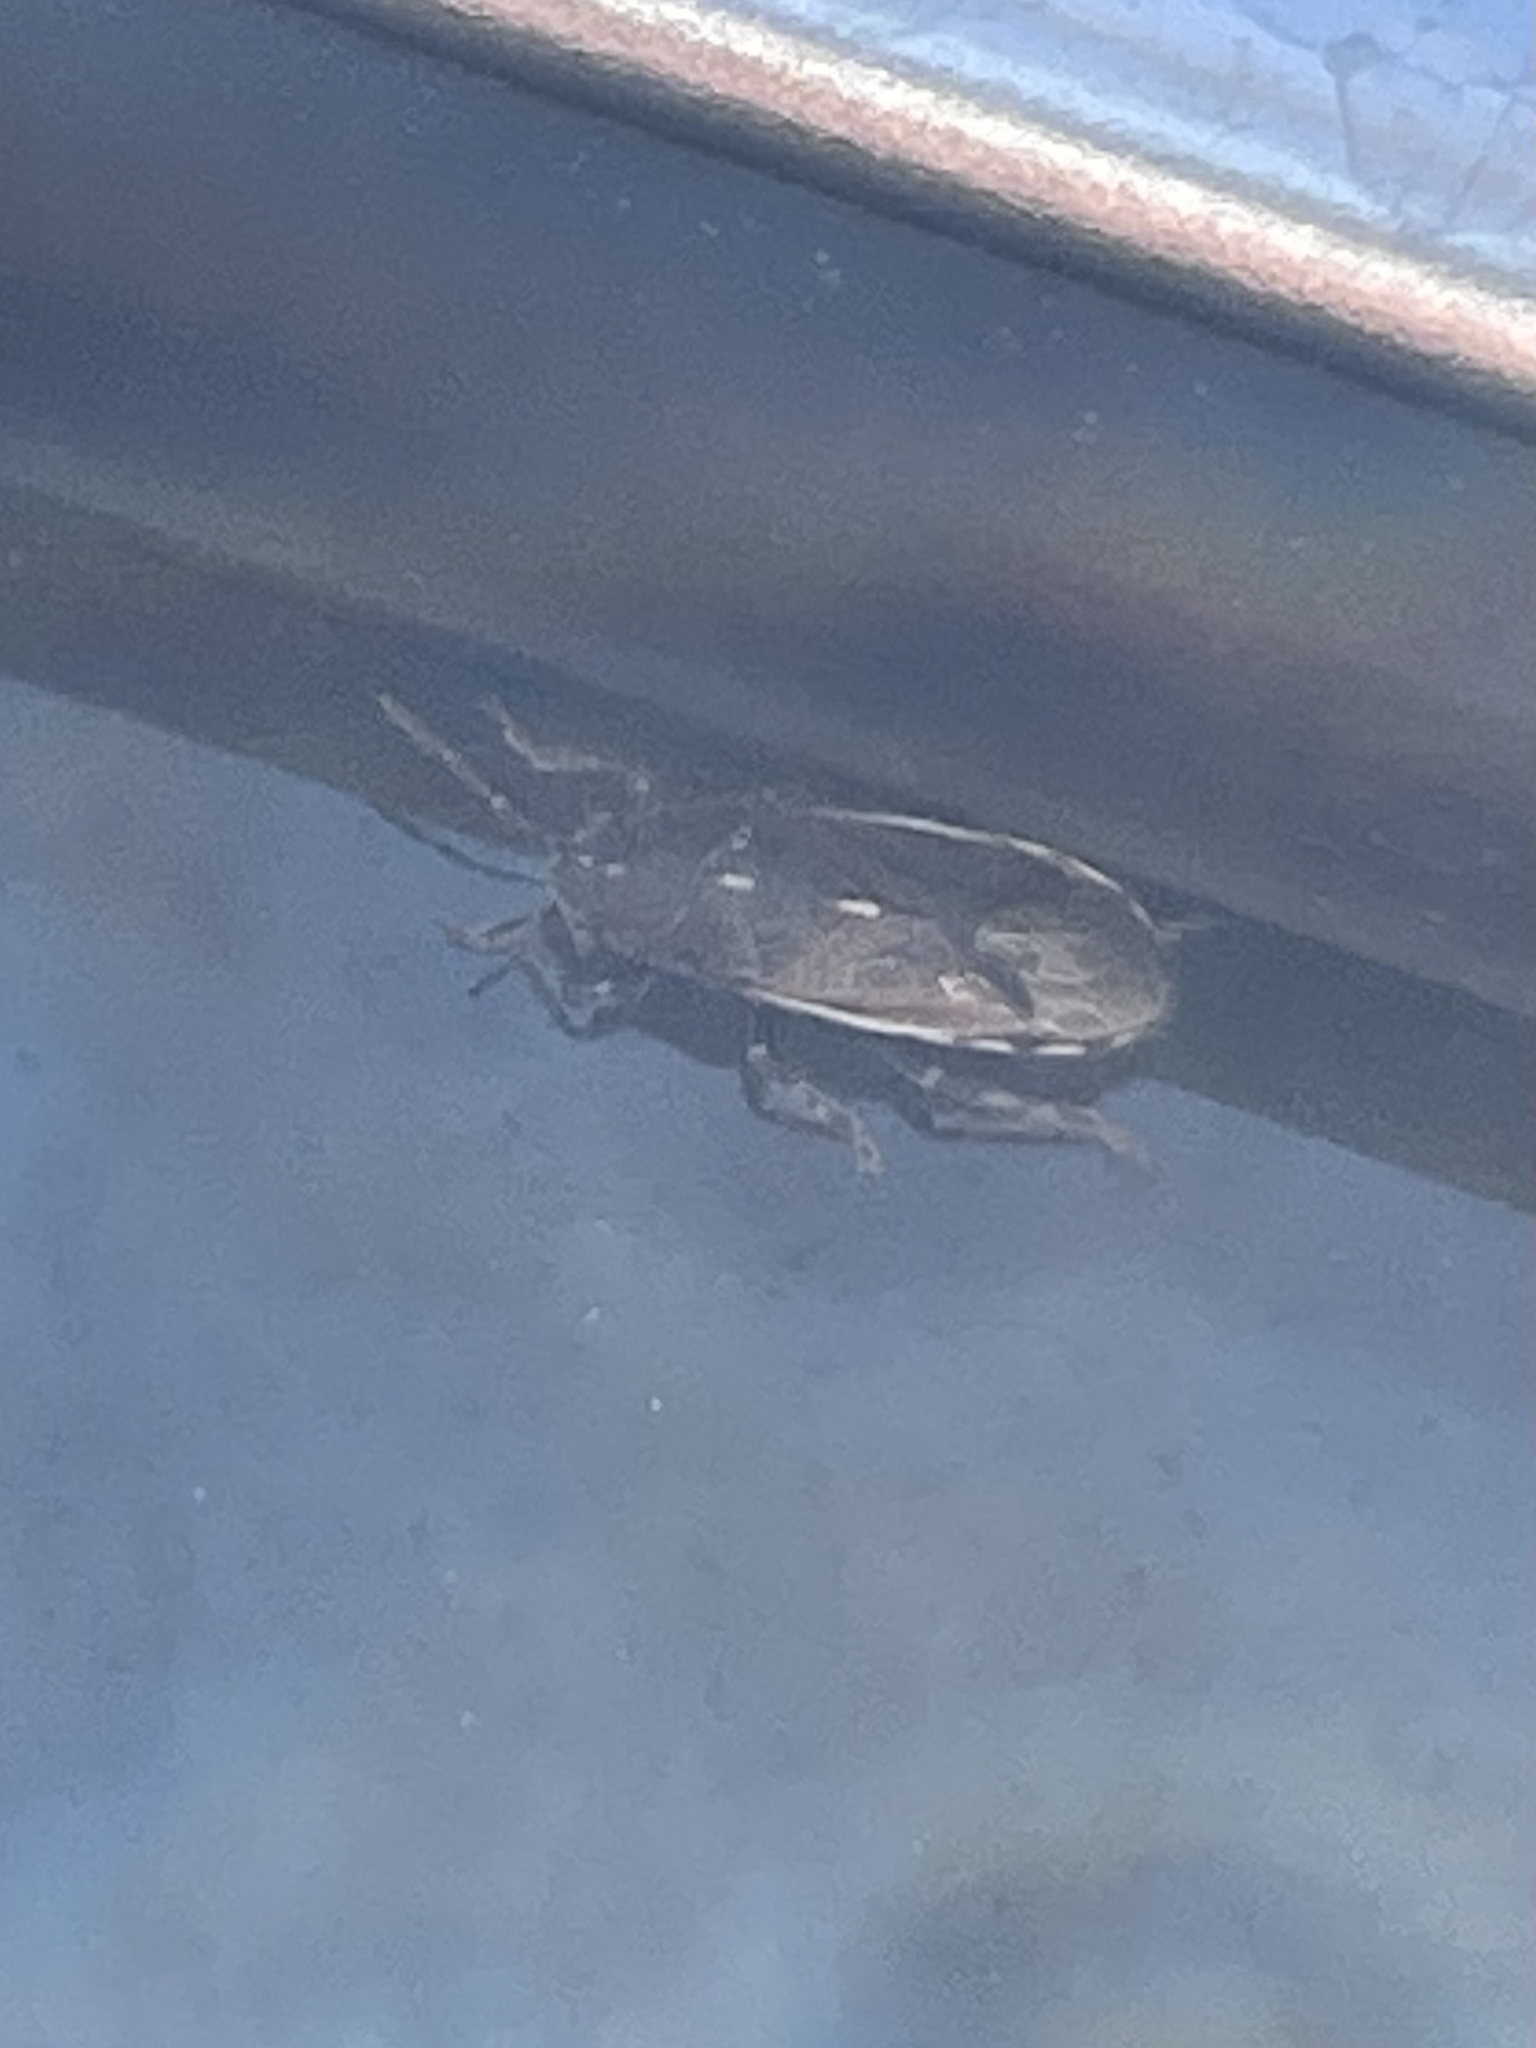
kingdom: Animalia
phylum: Arthropoda
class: Insecta
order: Hemiptera
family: Heterogastridae
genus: Heterogaster
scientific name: Heterogaster flavicosta
